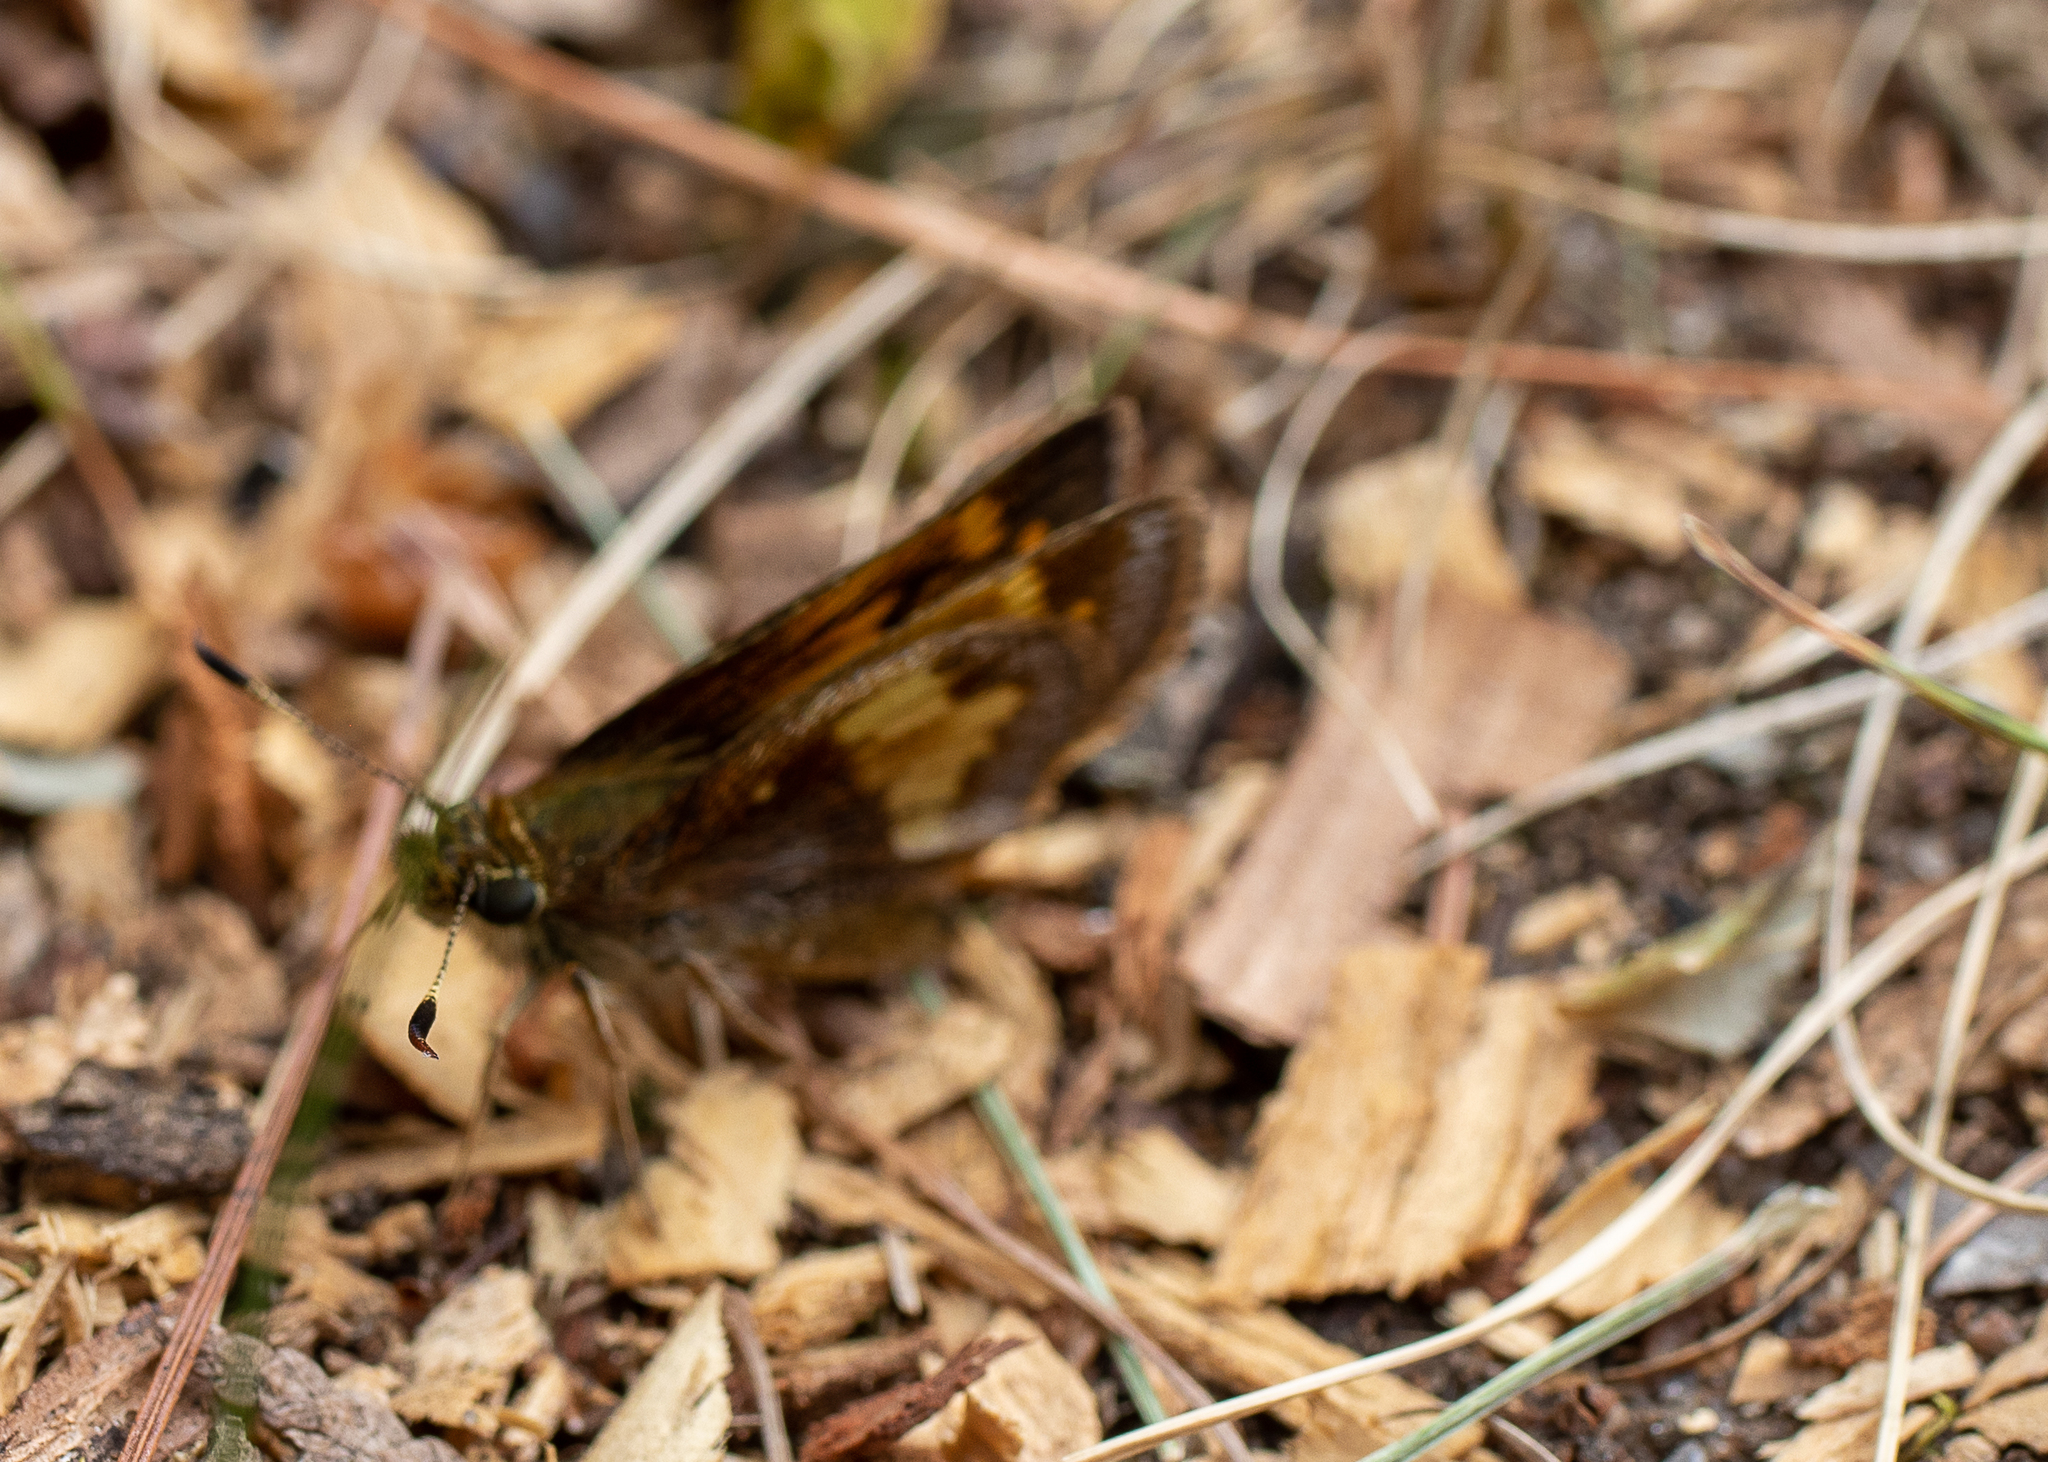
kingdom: Animalia
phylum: Arthropoda
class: Insecta
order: Lepidoptera
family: Hesperiidae
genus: Lon
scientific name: Lon hobomok
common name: Hobomok skipper
